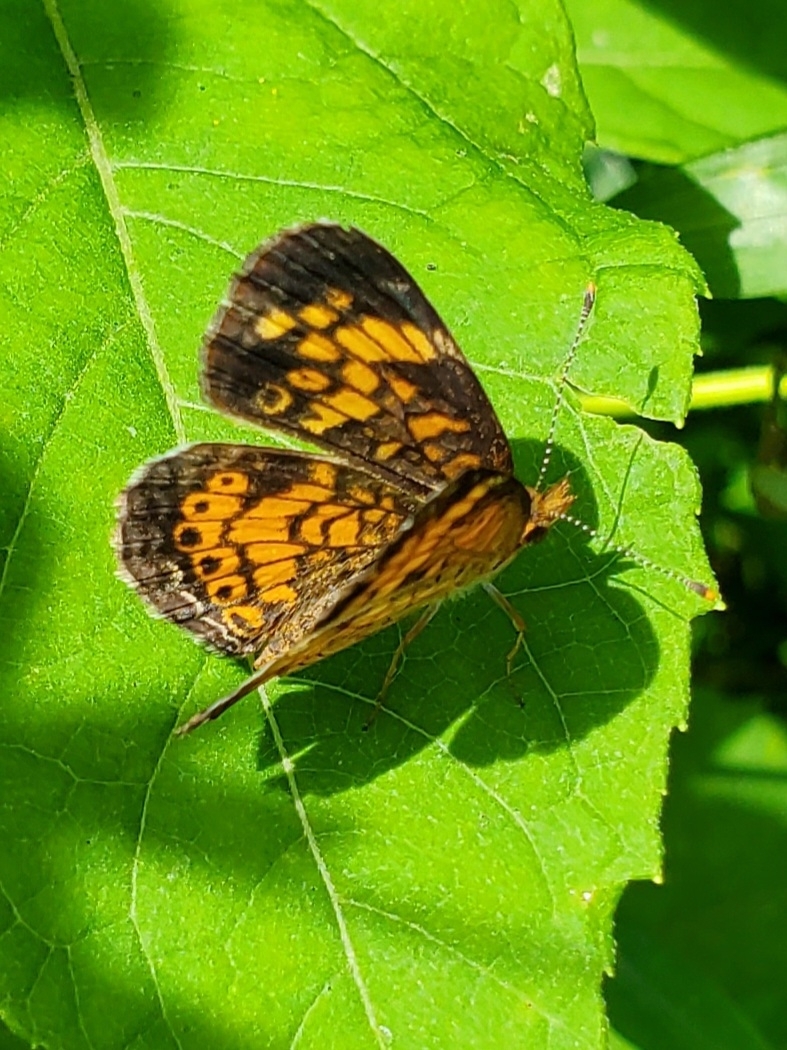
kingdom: Animalia
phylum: Arthropoda
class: Insecta
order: Lepidoptera
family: Nymphalidae
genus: Phyciodes
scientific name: Phyciodes tharos
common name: Pearl crescent
